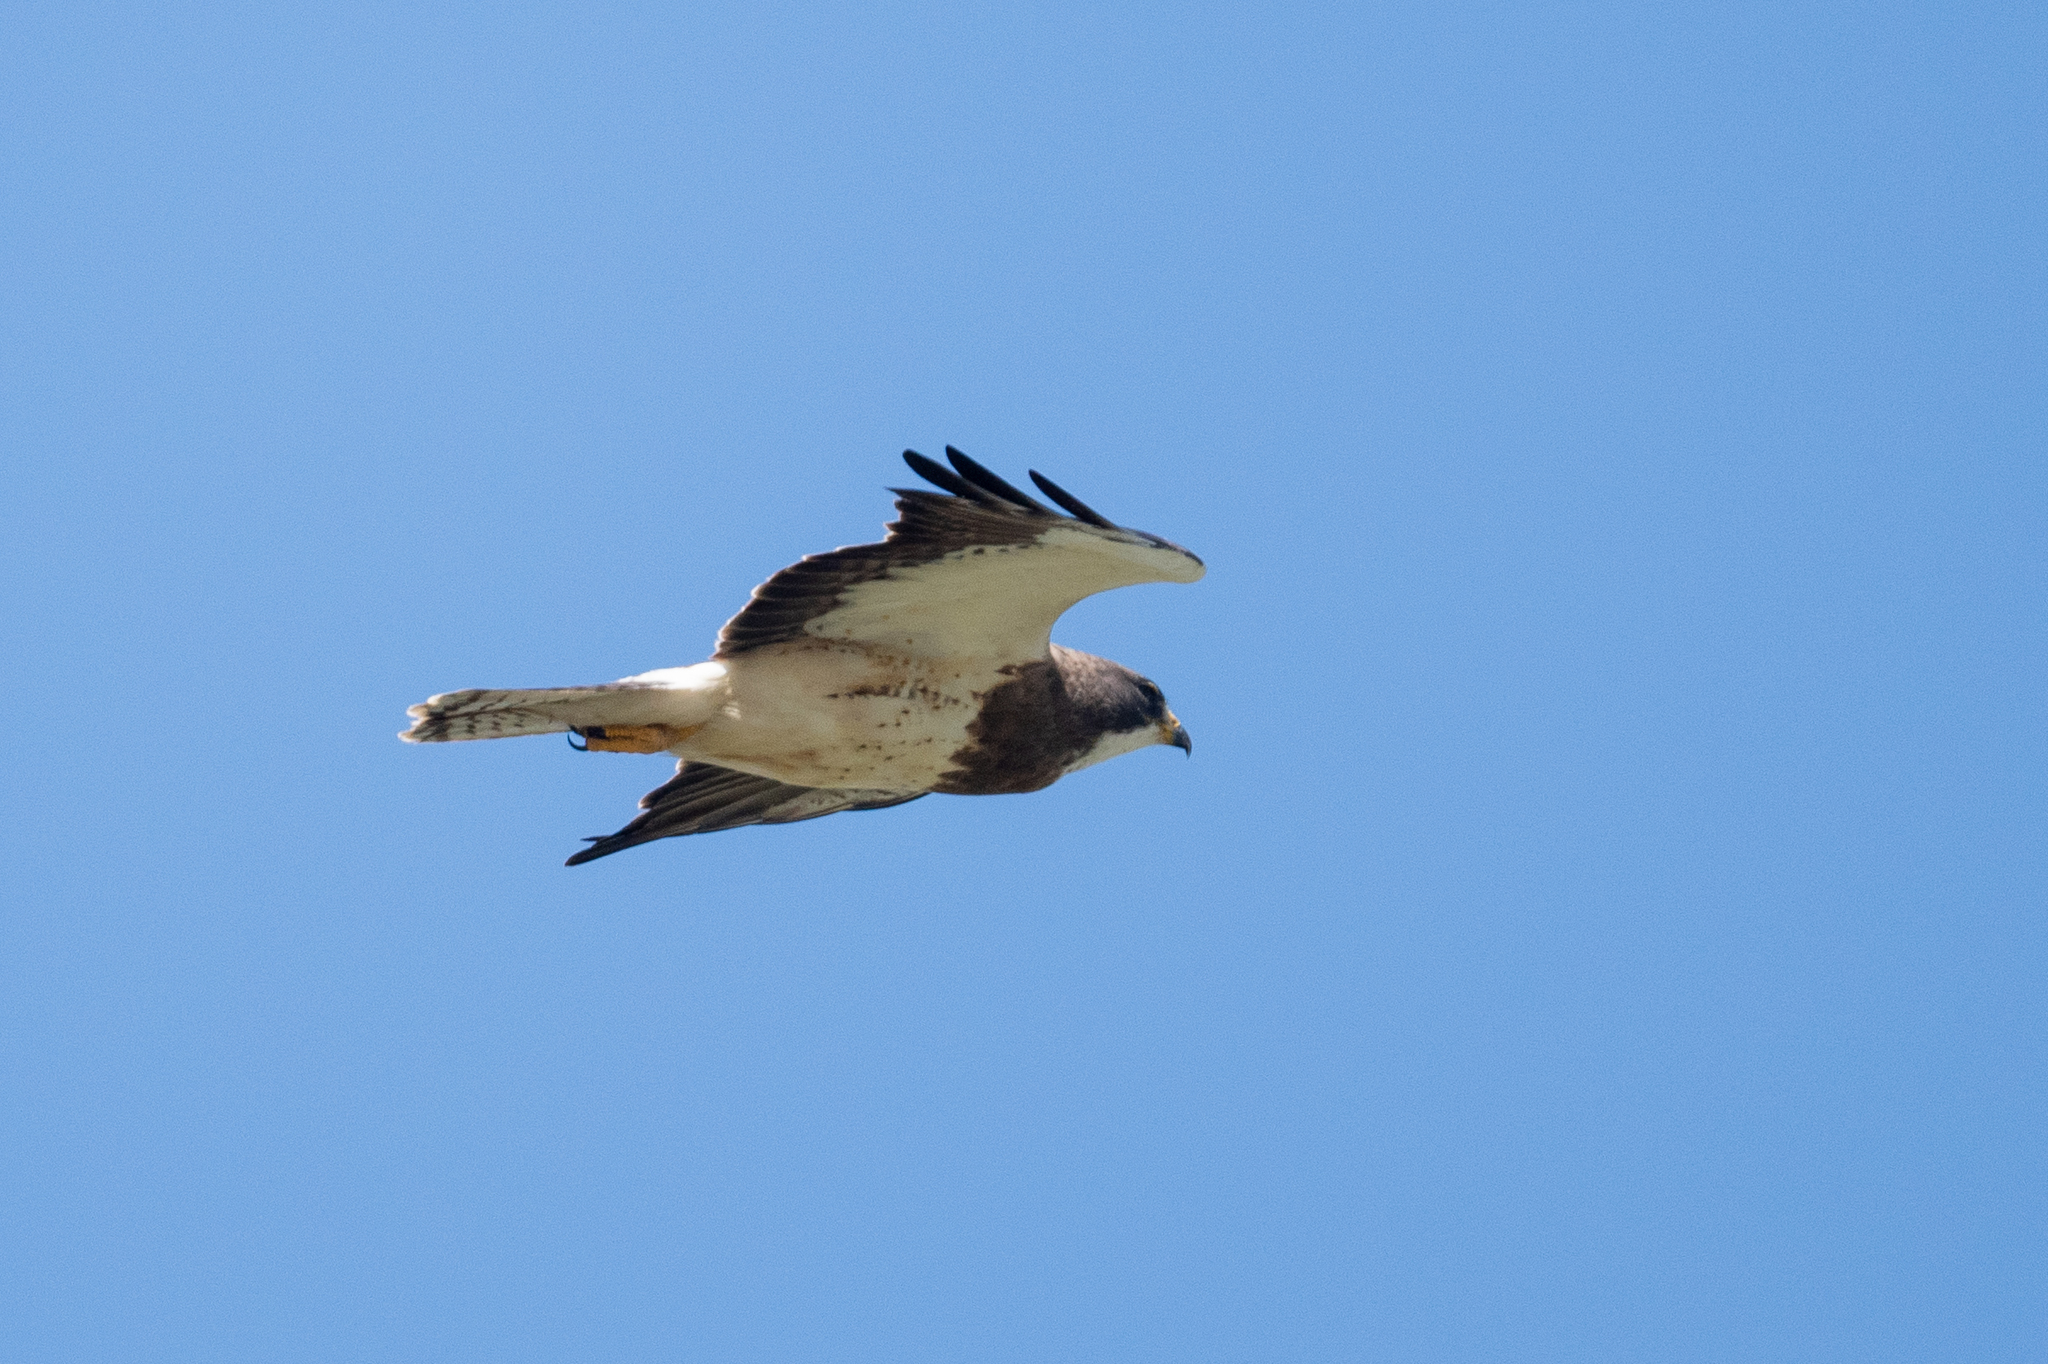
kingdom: Animalia
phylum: Chordata
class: Aves
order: Accipitriformes
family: Accipitridae
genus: Buteo
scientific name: Buteo swainsoni
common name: Swainson's hawk
